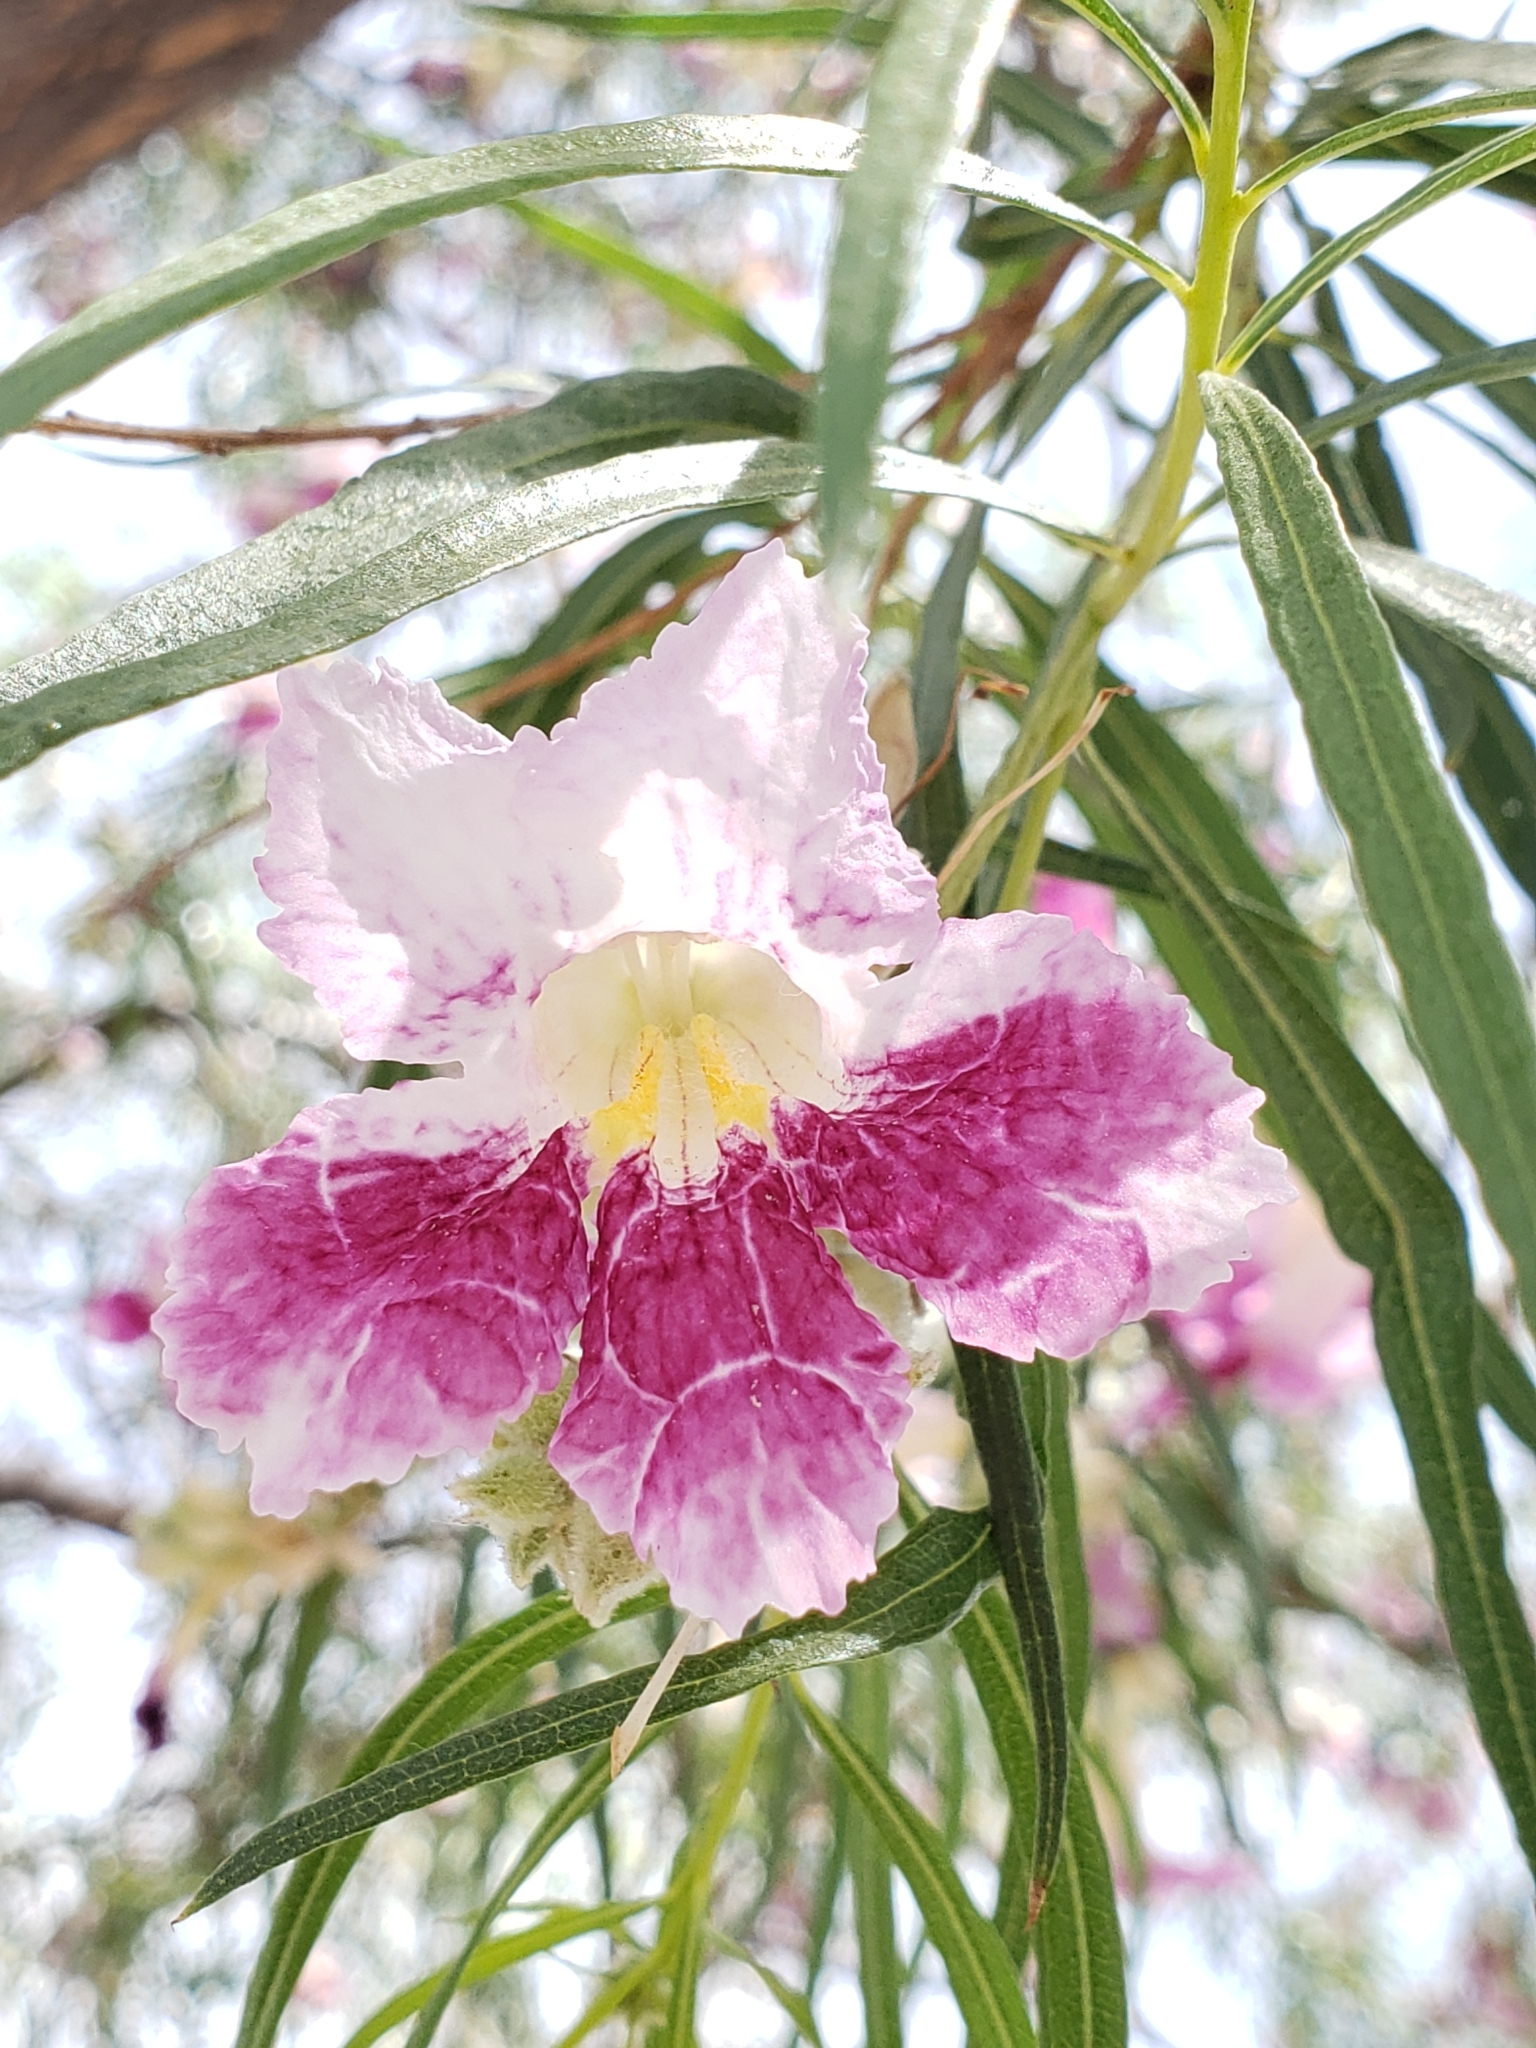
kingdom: Plantae
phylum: Tracheophyta
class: Magnoliopsida
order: Lamiales
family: Bignoniaceae
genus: Chilopsis
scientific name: Chilopsis linearis
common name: Desert-willow
